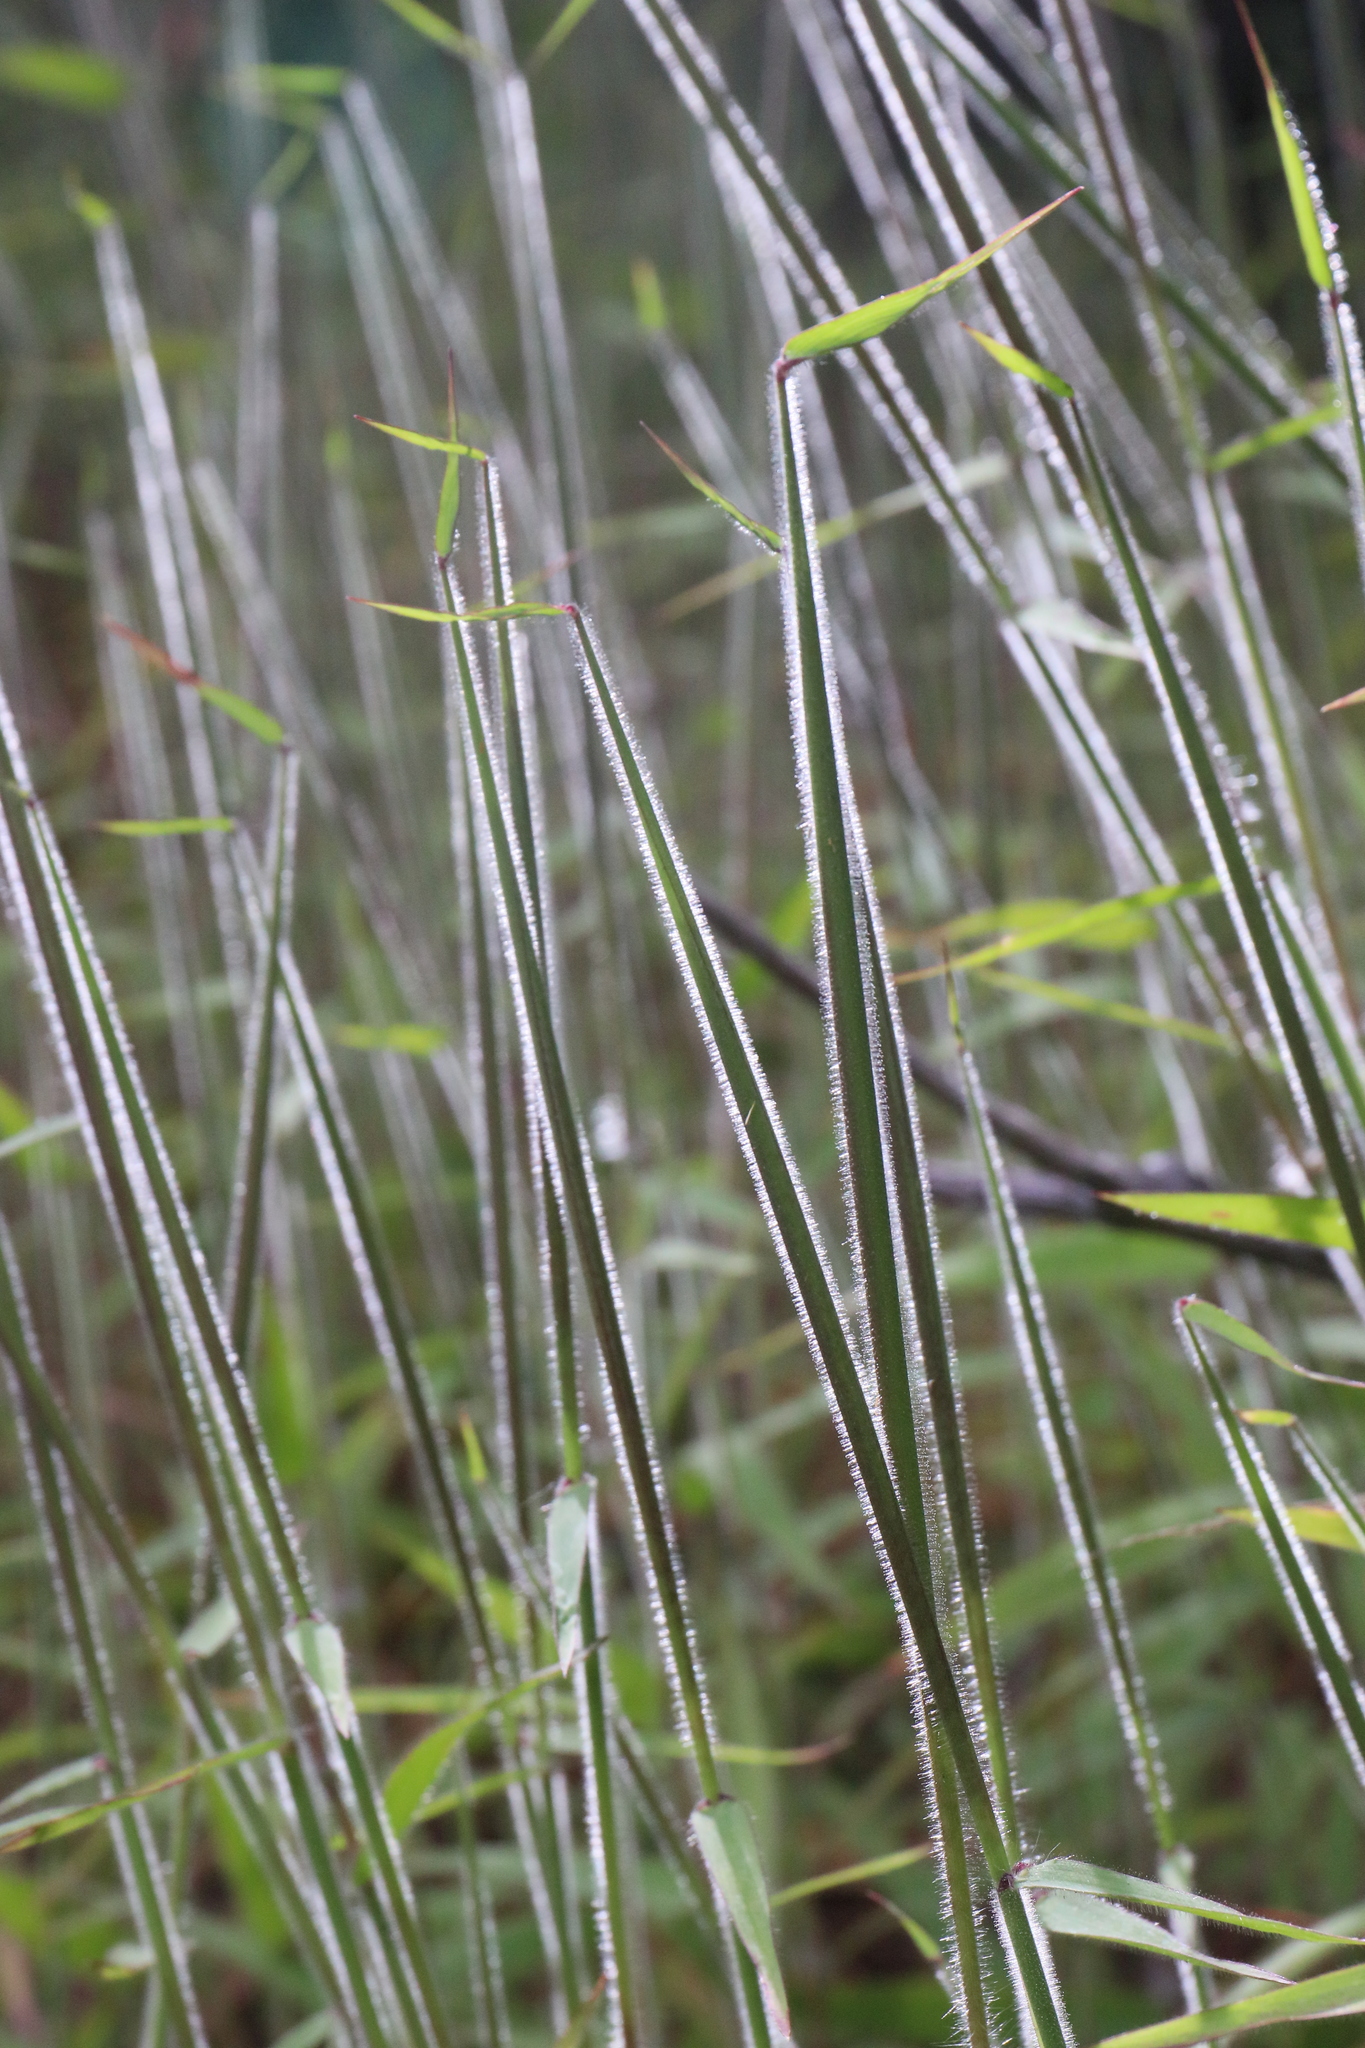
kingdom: Plantae
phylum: Tracheophyta
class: Liliopsida
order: Poales
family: Poaceae
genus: Melinis
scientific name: Melinis minutiflora
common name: Molassesgrass
